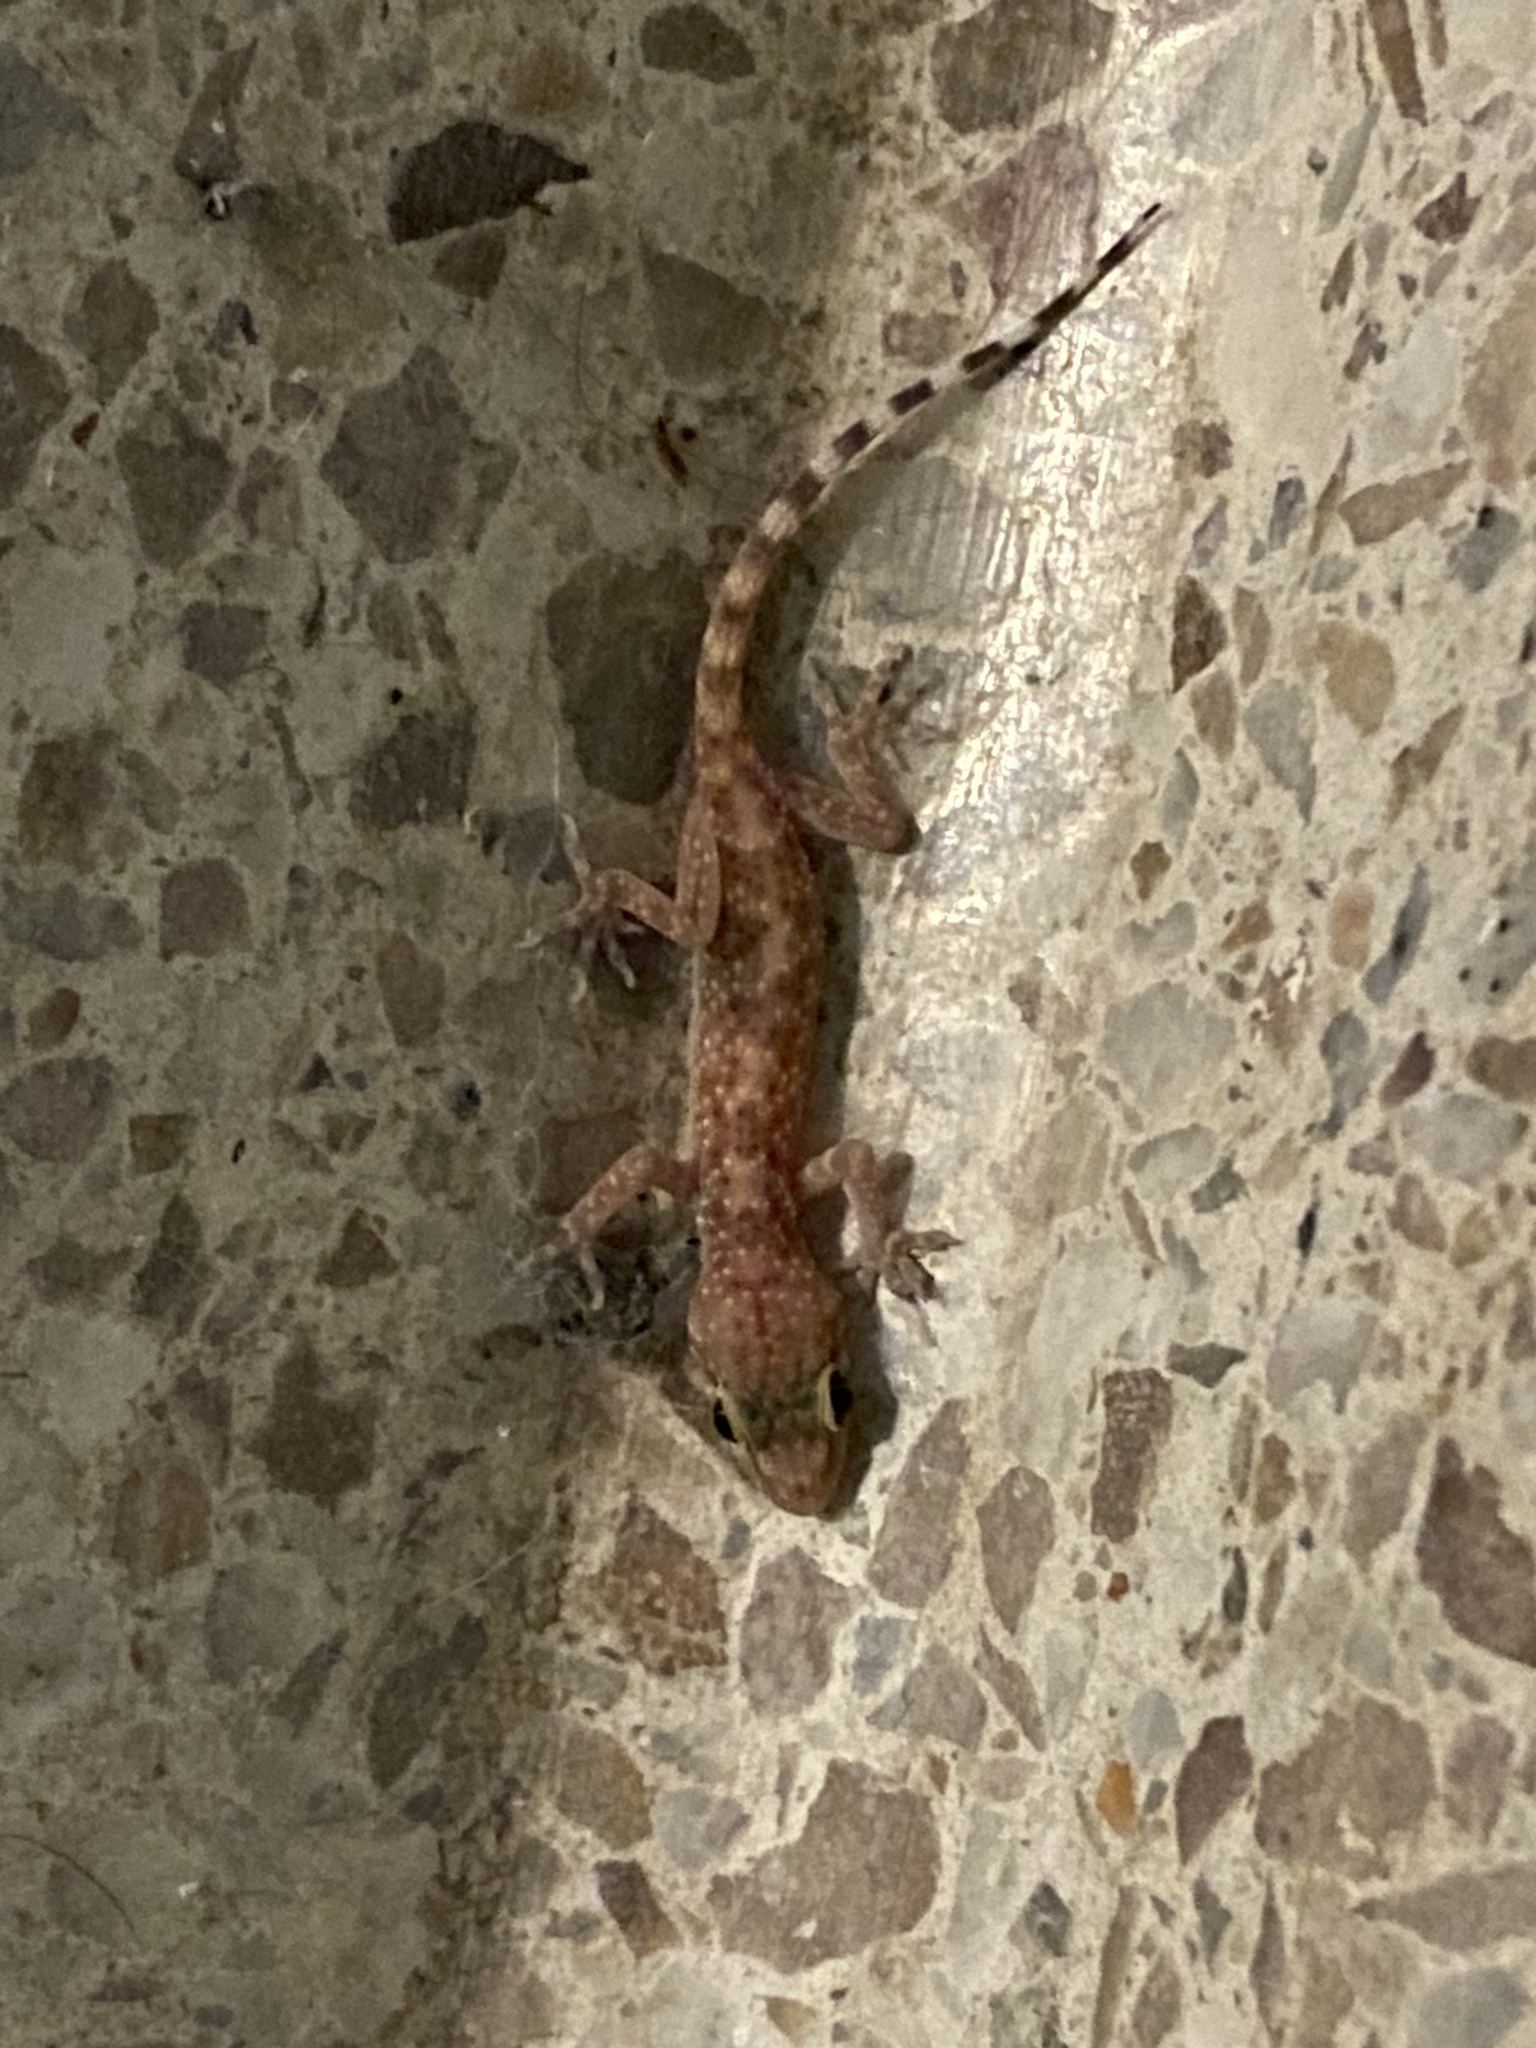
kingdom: Animalia
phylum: Chordata
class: Squamata
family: Gekkonidae
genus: Hemidactylus
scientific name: Hemidactylus turcicus
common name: Turkish gecko
